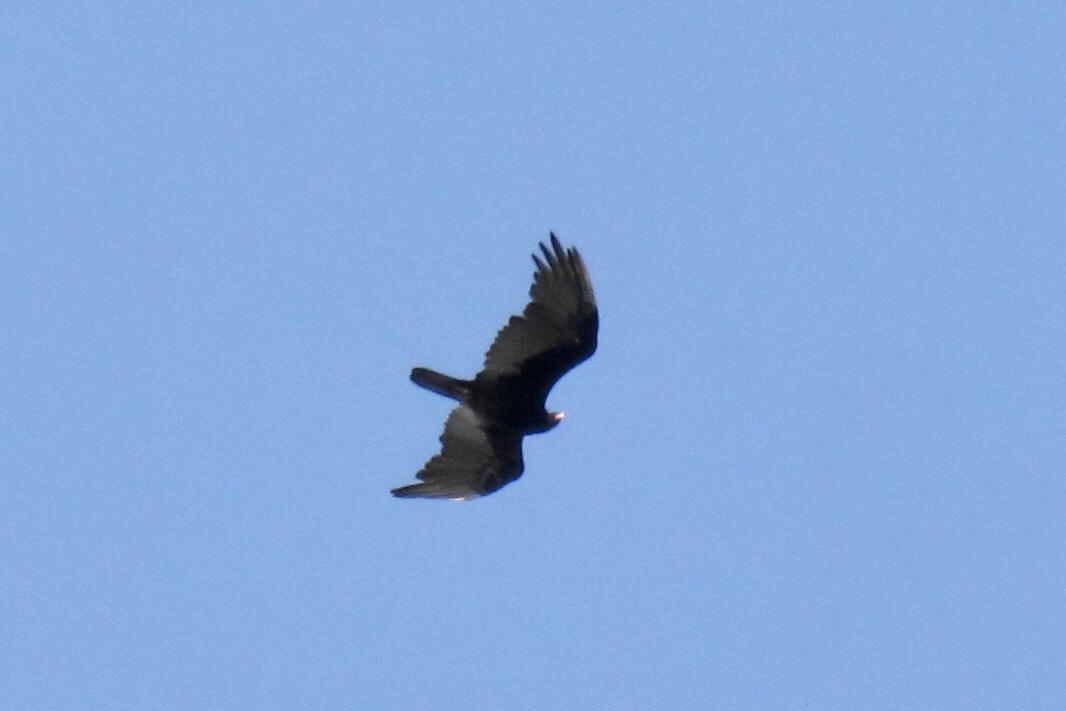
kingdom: Animalia
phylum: Chordata
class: Aves
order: Accipitriformes
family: Cathartidae
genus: Cathartes
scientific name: Cathartes aura
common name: Turkey vulture
